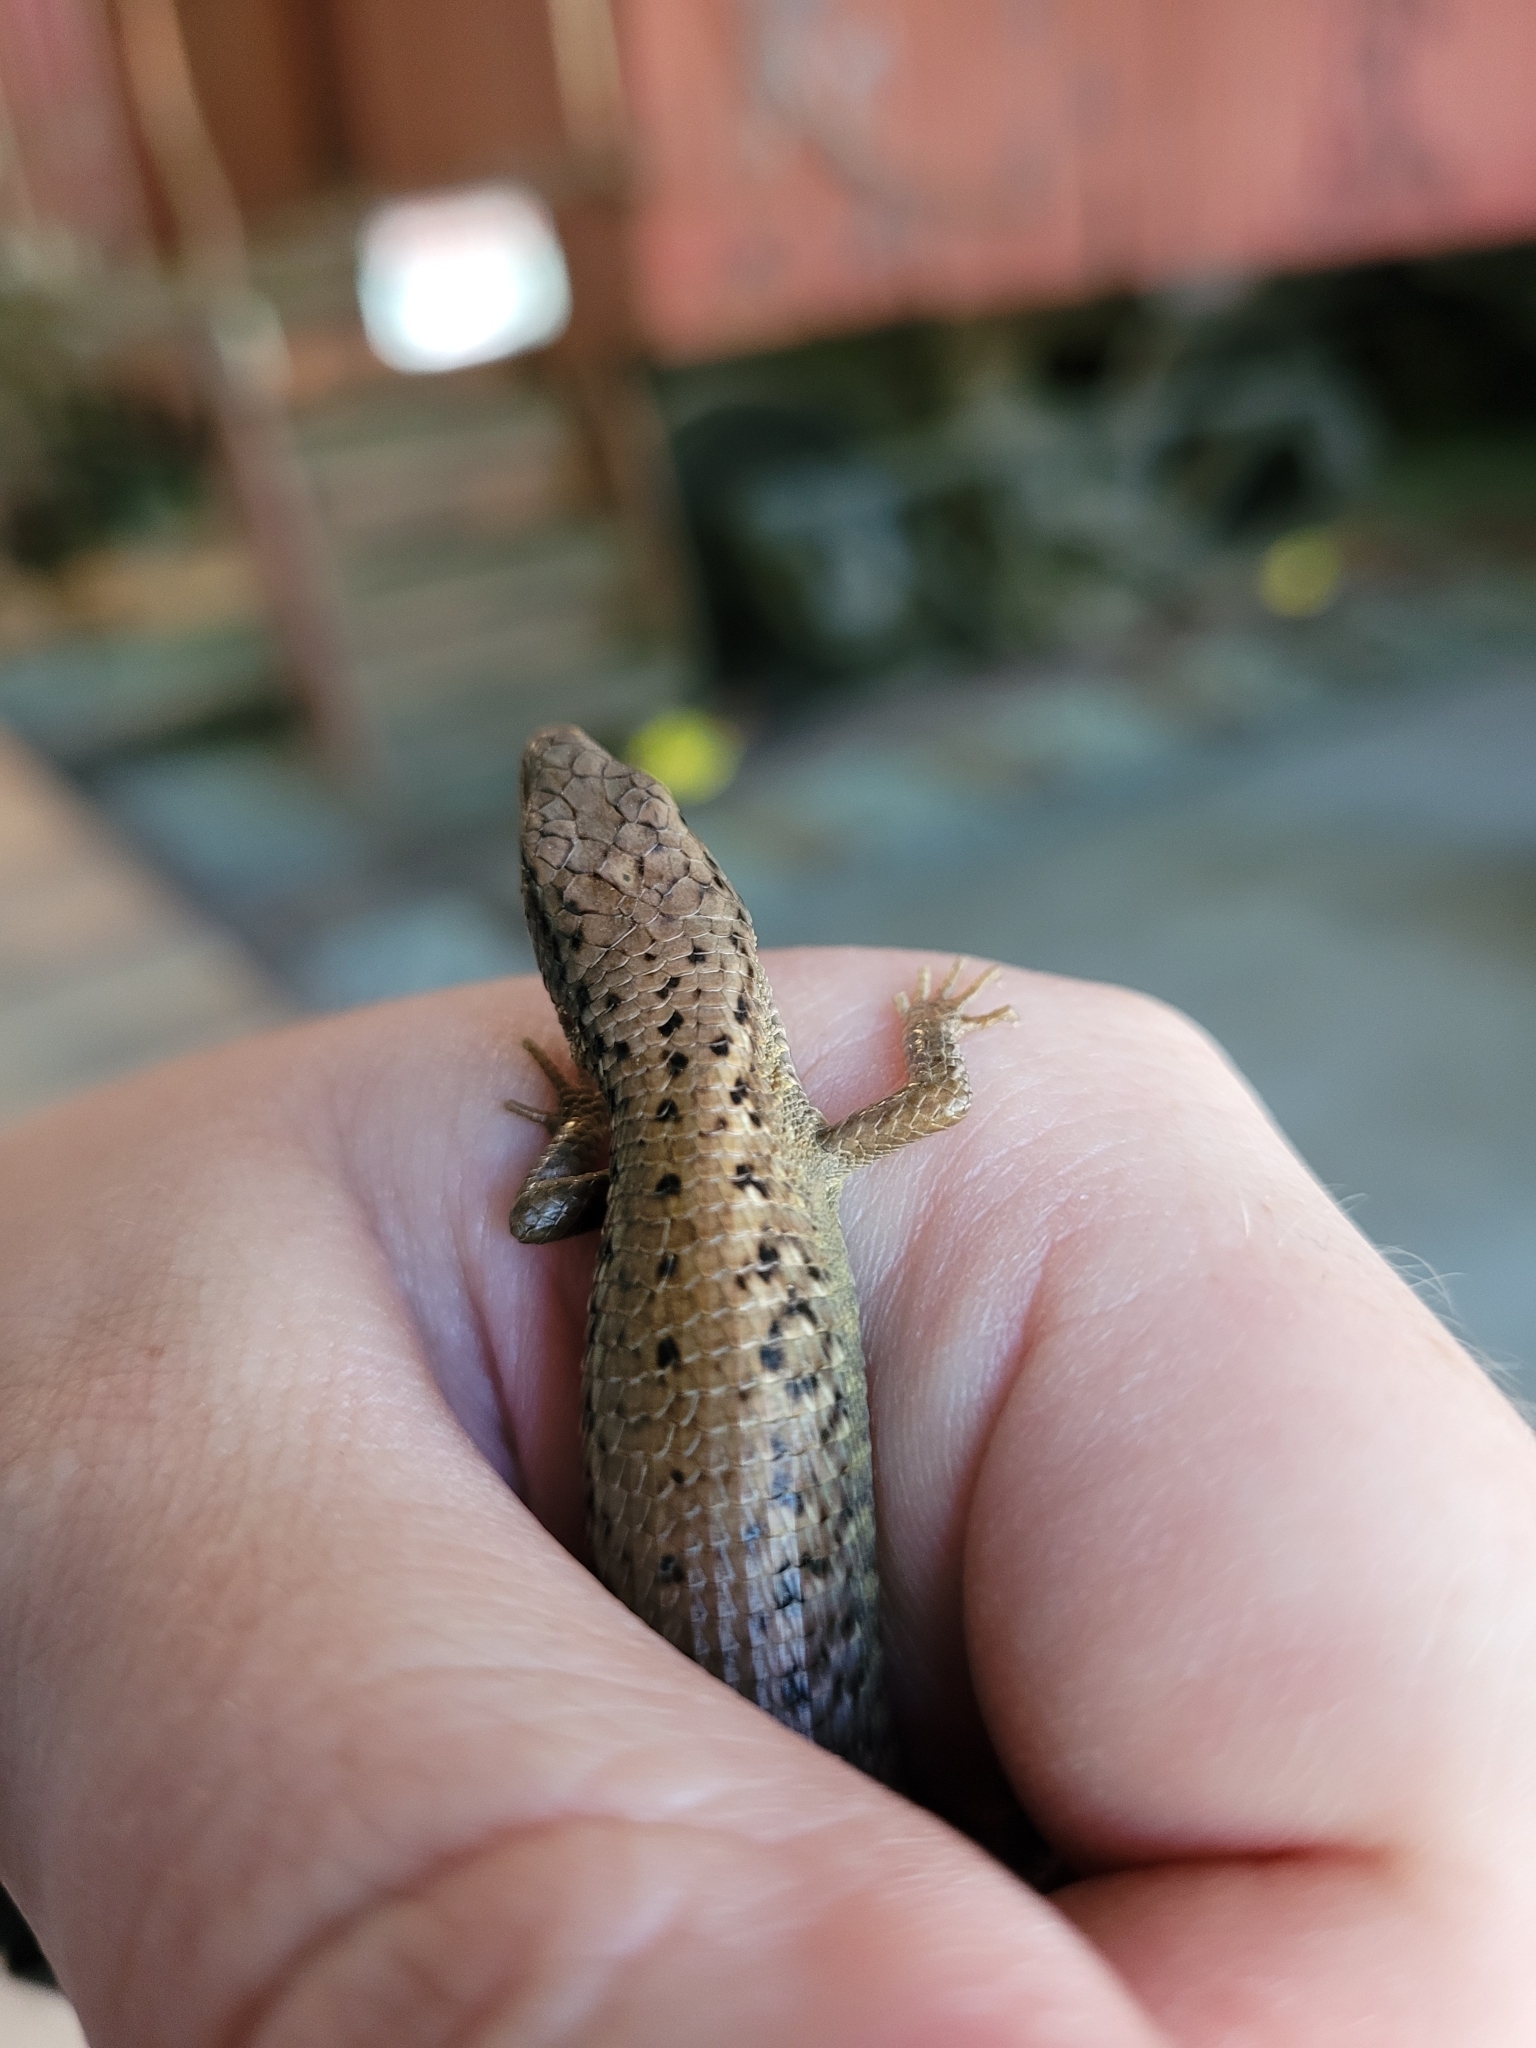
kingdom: Animalia
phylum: Chordata
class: Squamata
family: Anguidae
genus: Elgaria
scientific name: Elgaria coerulea
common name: Northern alligator lizard
